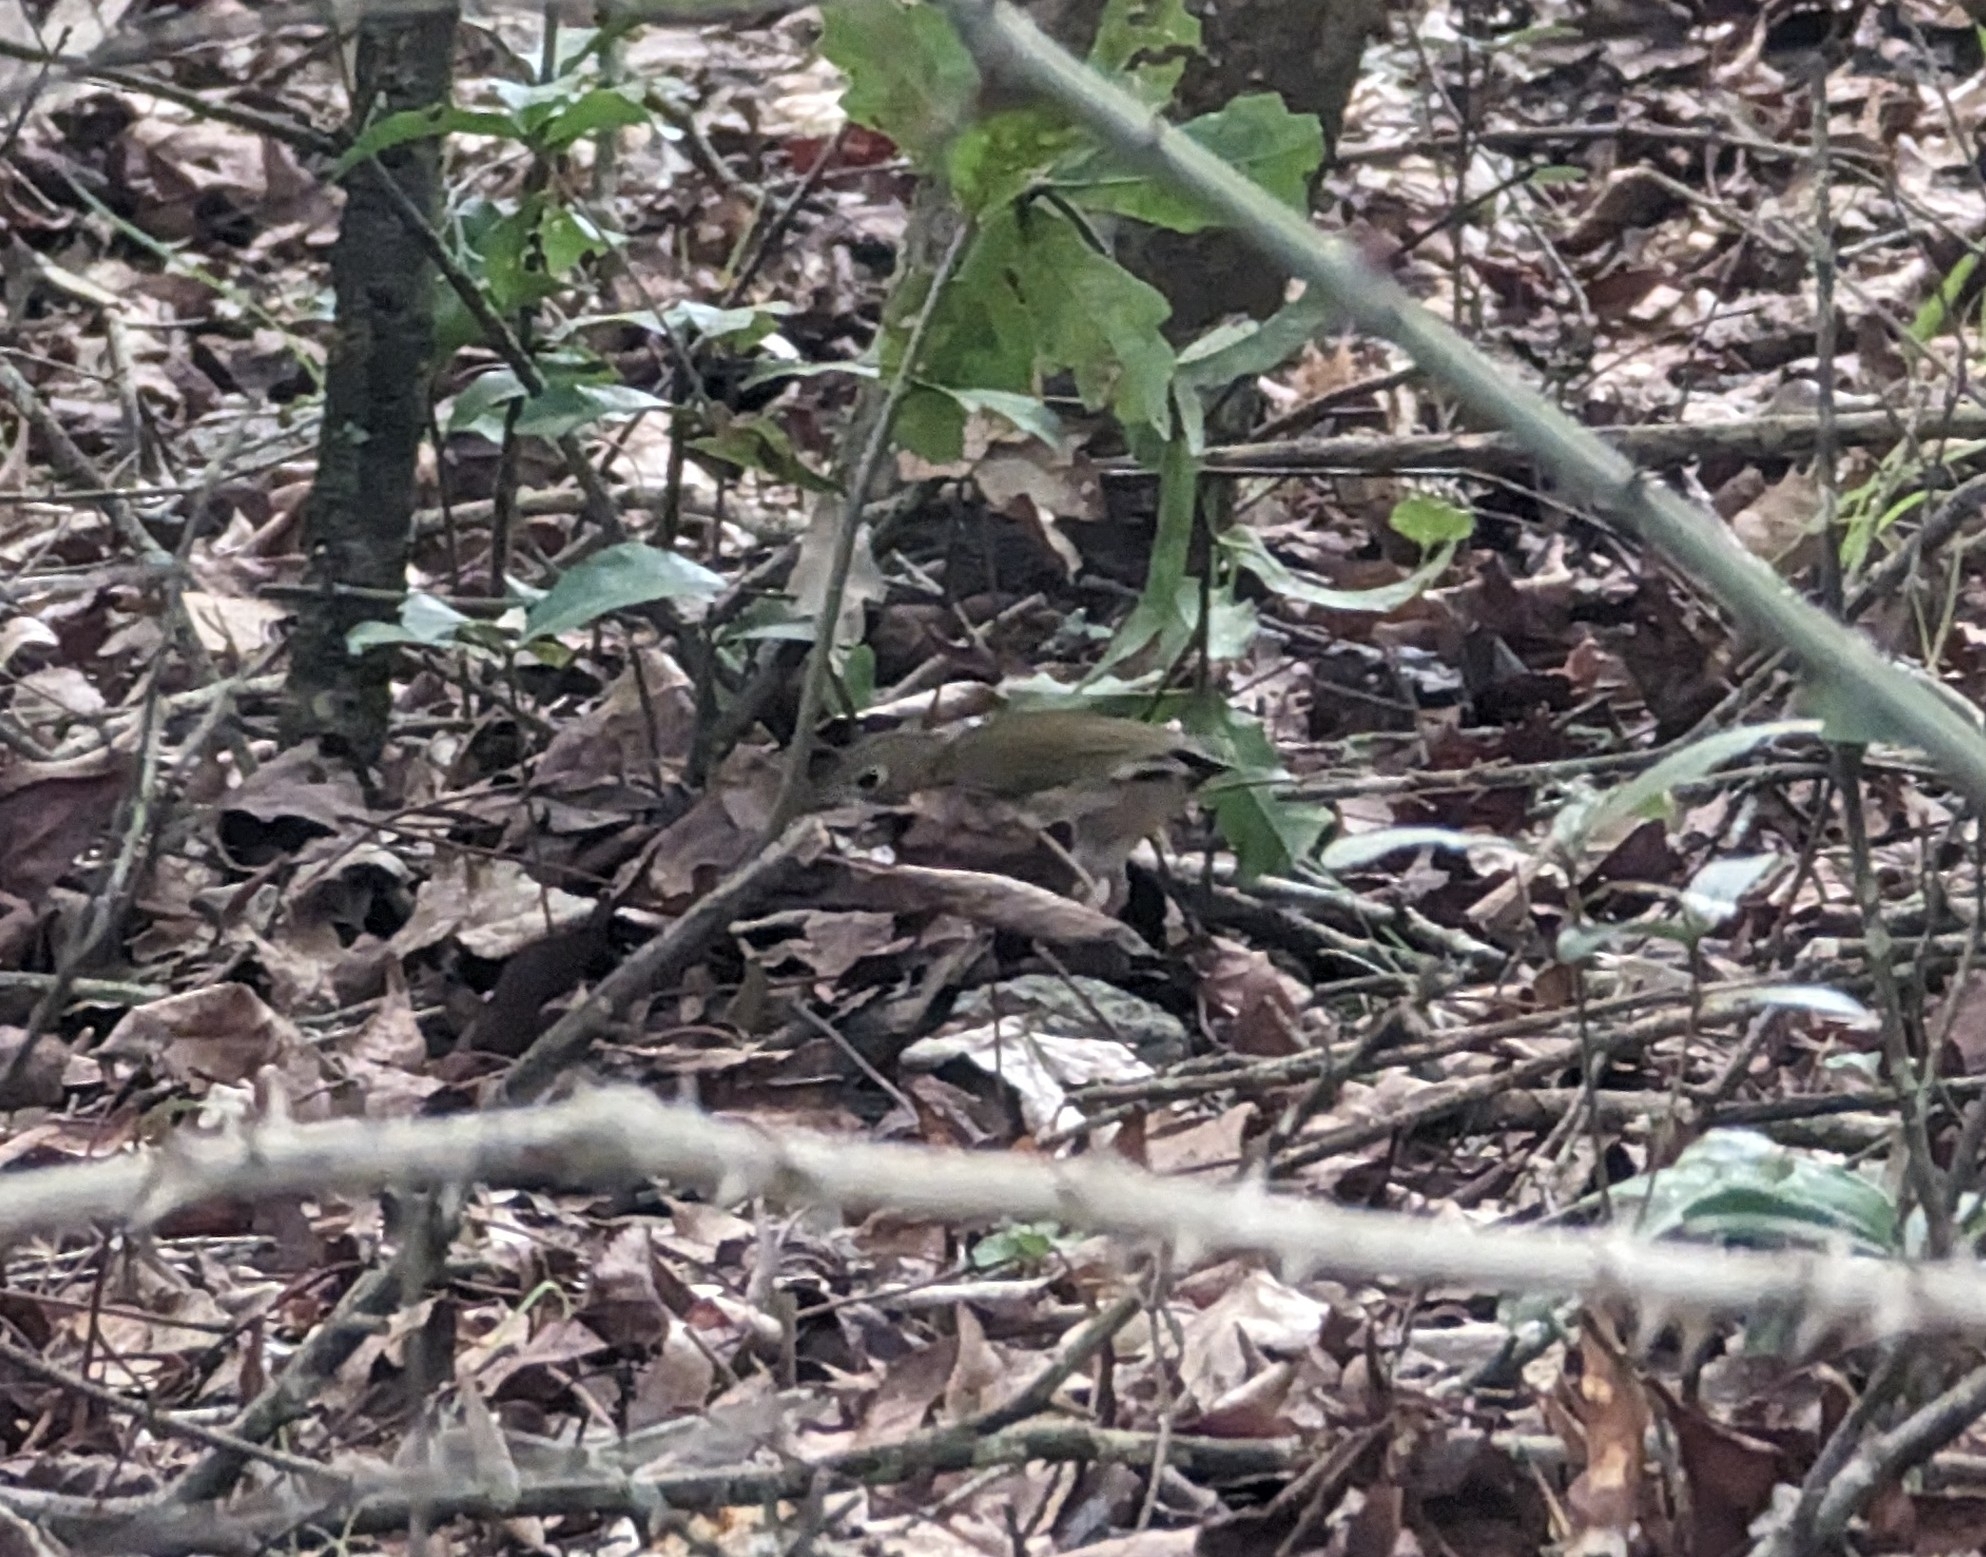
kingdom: Animalia
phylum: Chordata
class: Aves
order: Passeriformes
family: Parulidae
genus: Seiurus
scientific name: Seiurus aurocapilla
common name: Ovenbird
